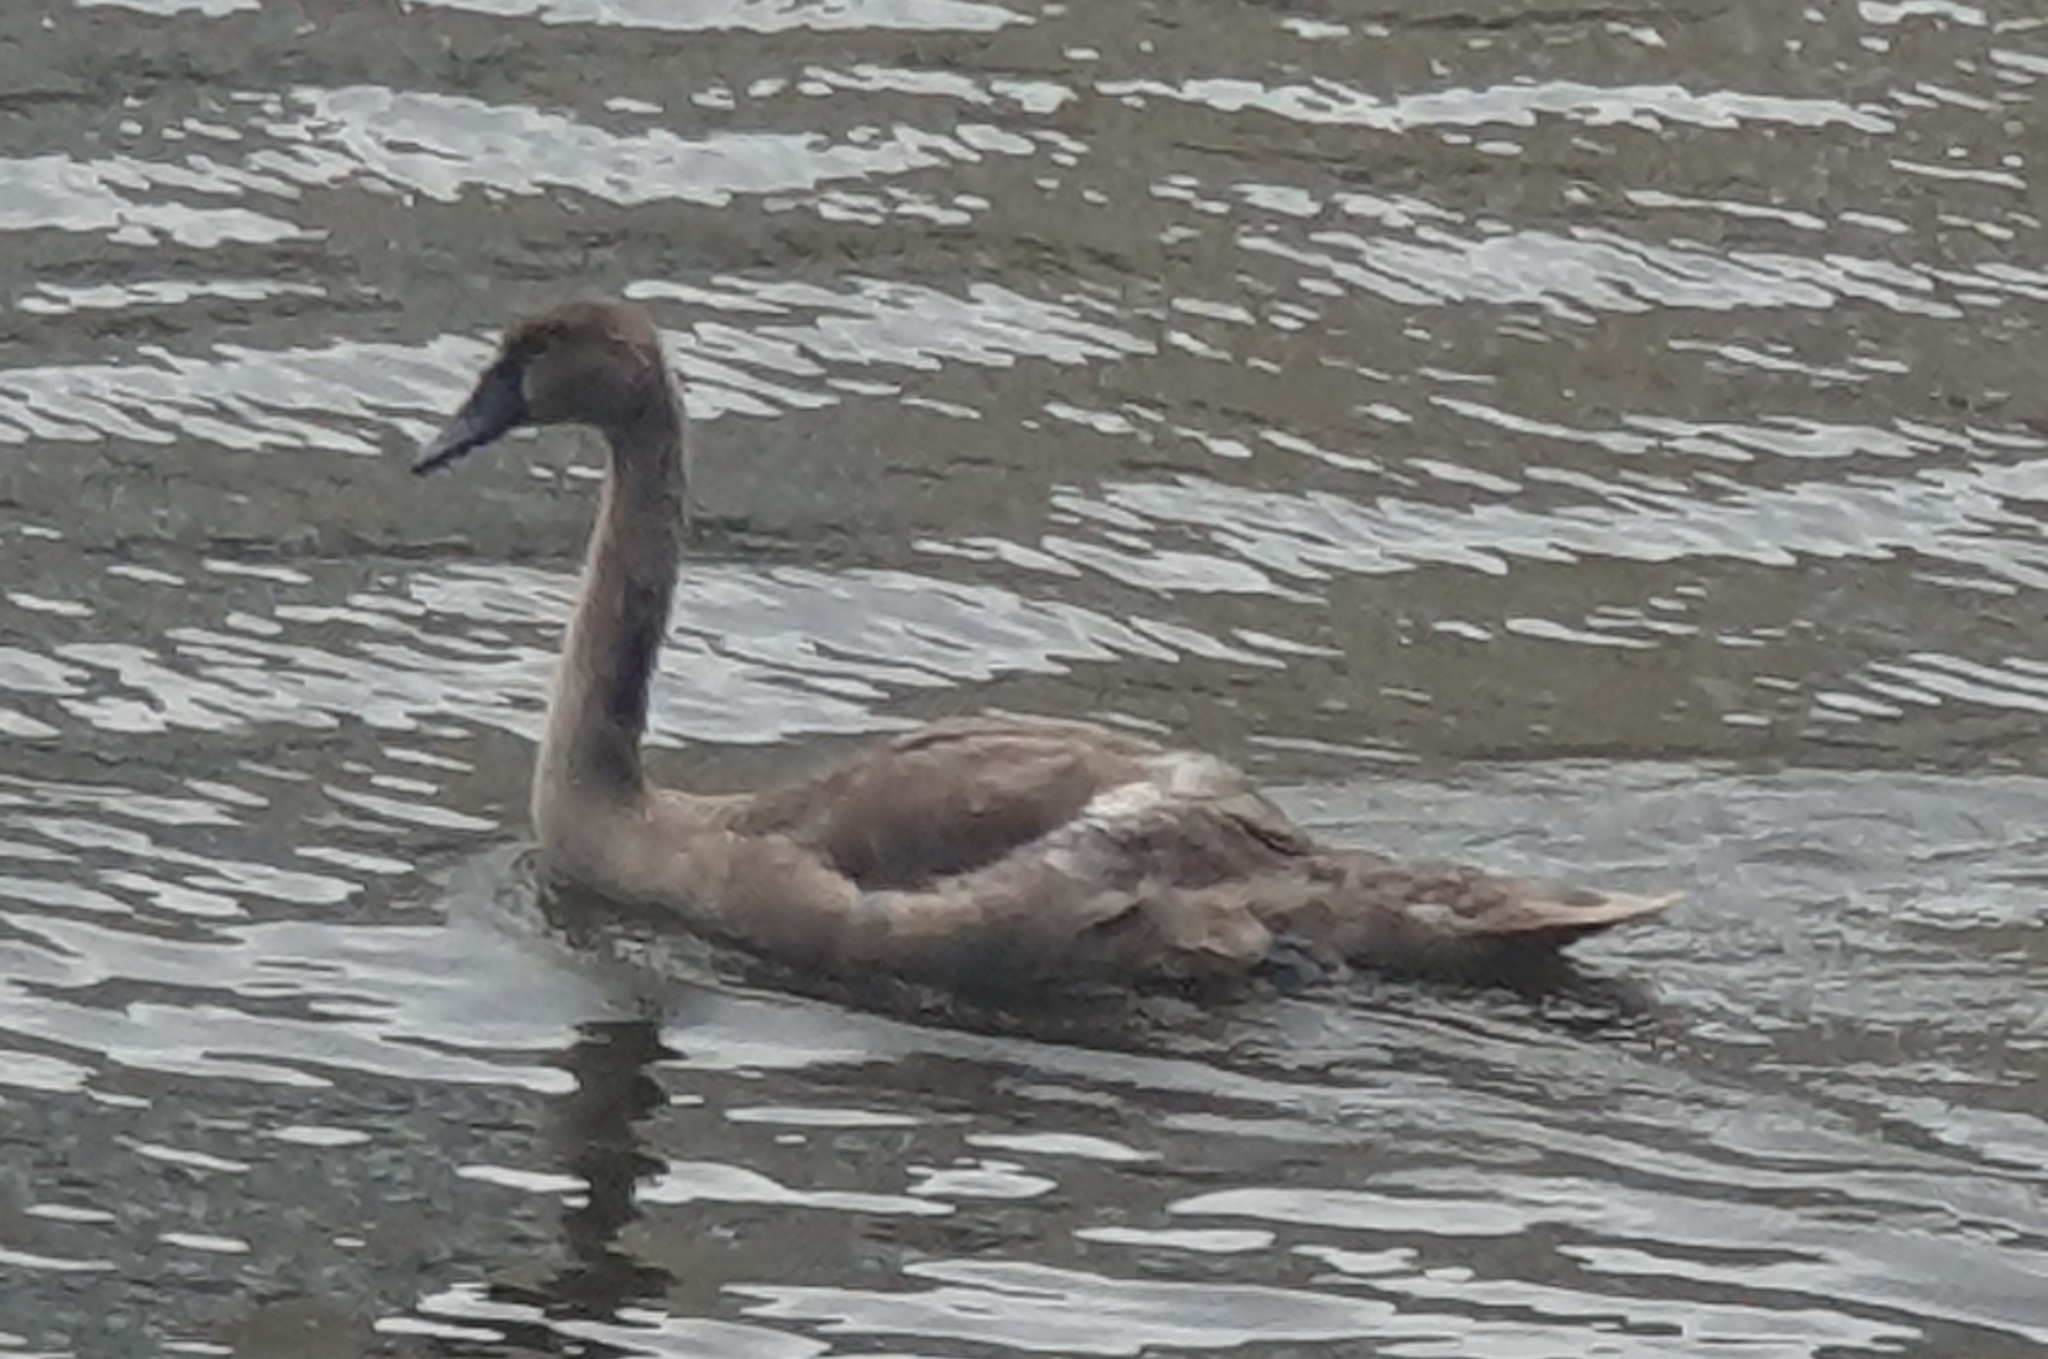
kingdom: Animalia
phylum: Chordata
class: Aves
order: Anseriformes
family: Anatidae
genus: Cygnus
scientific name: Cygnus olor
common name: Mute swan
